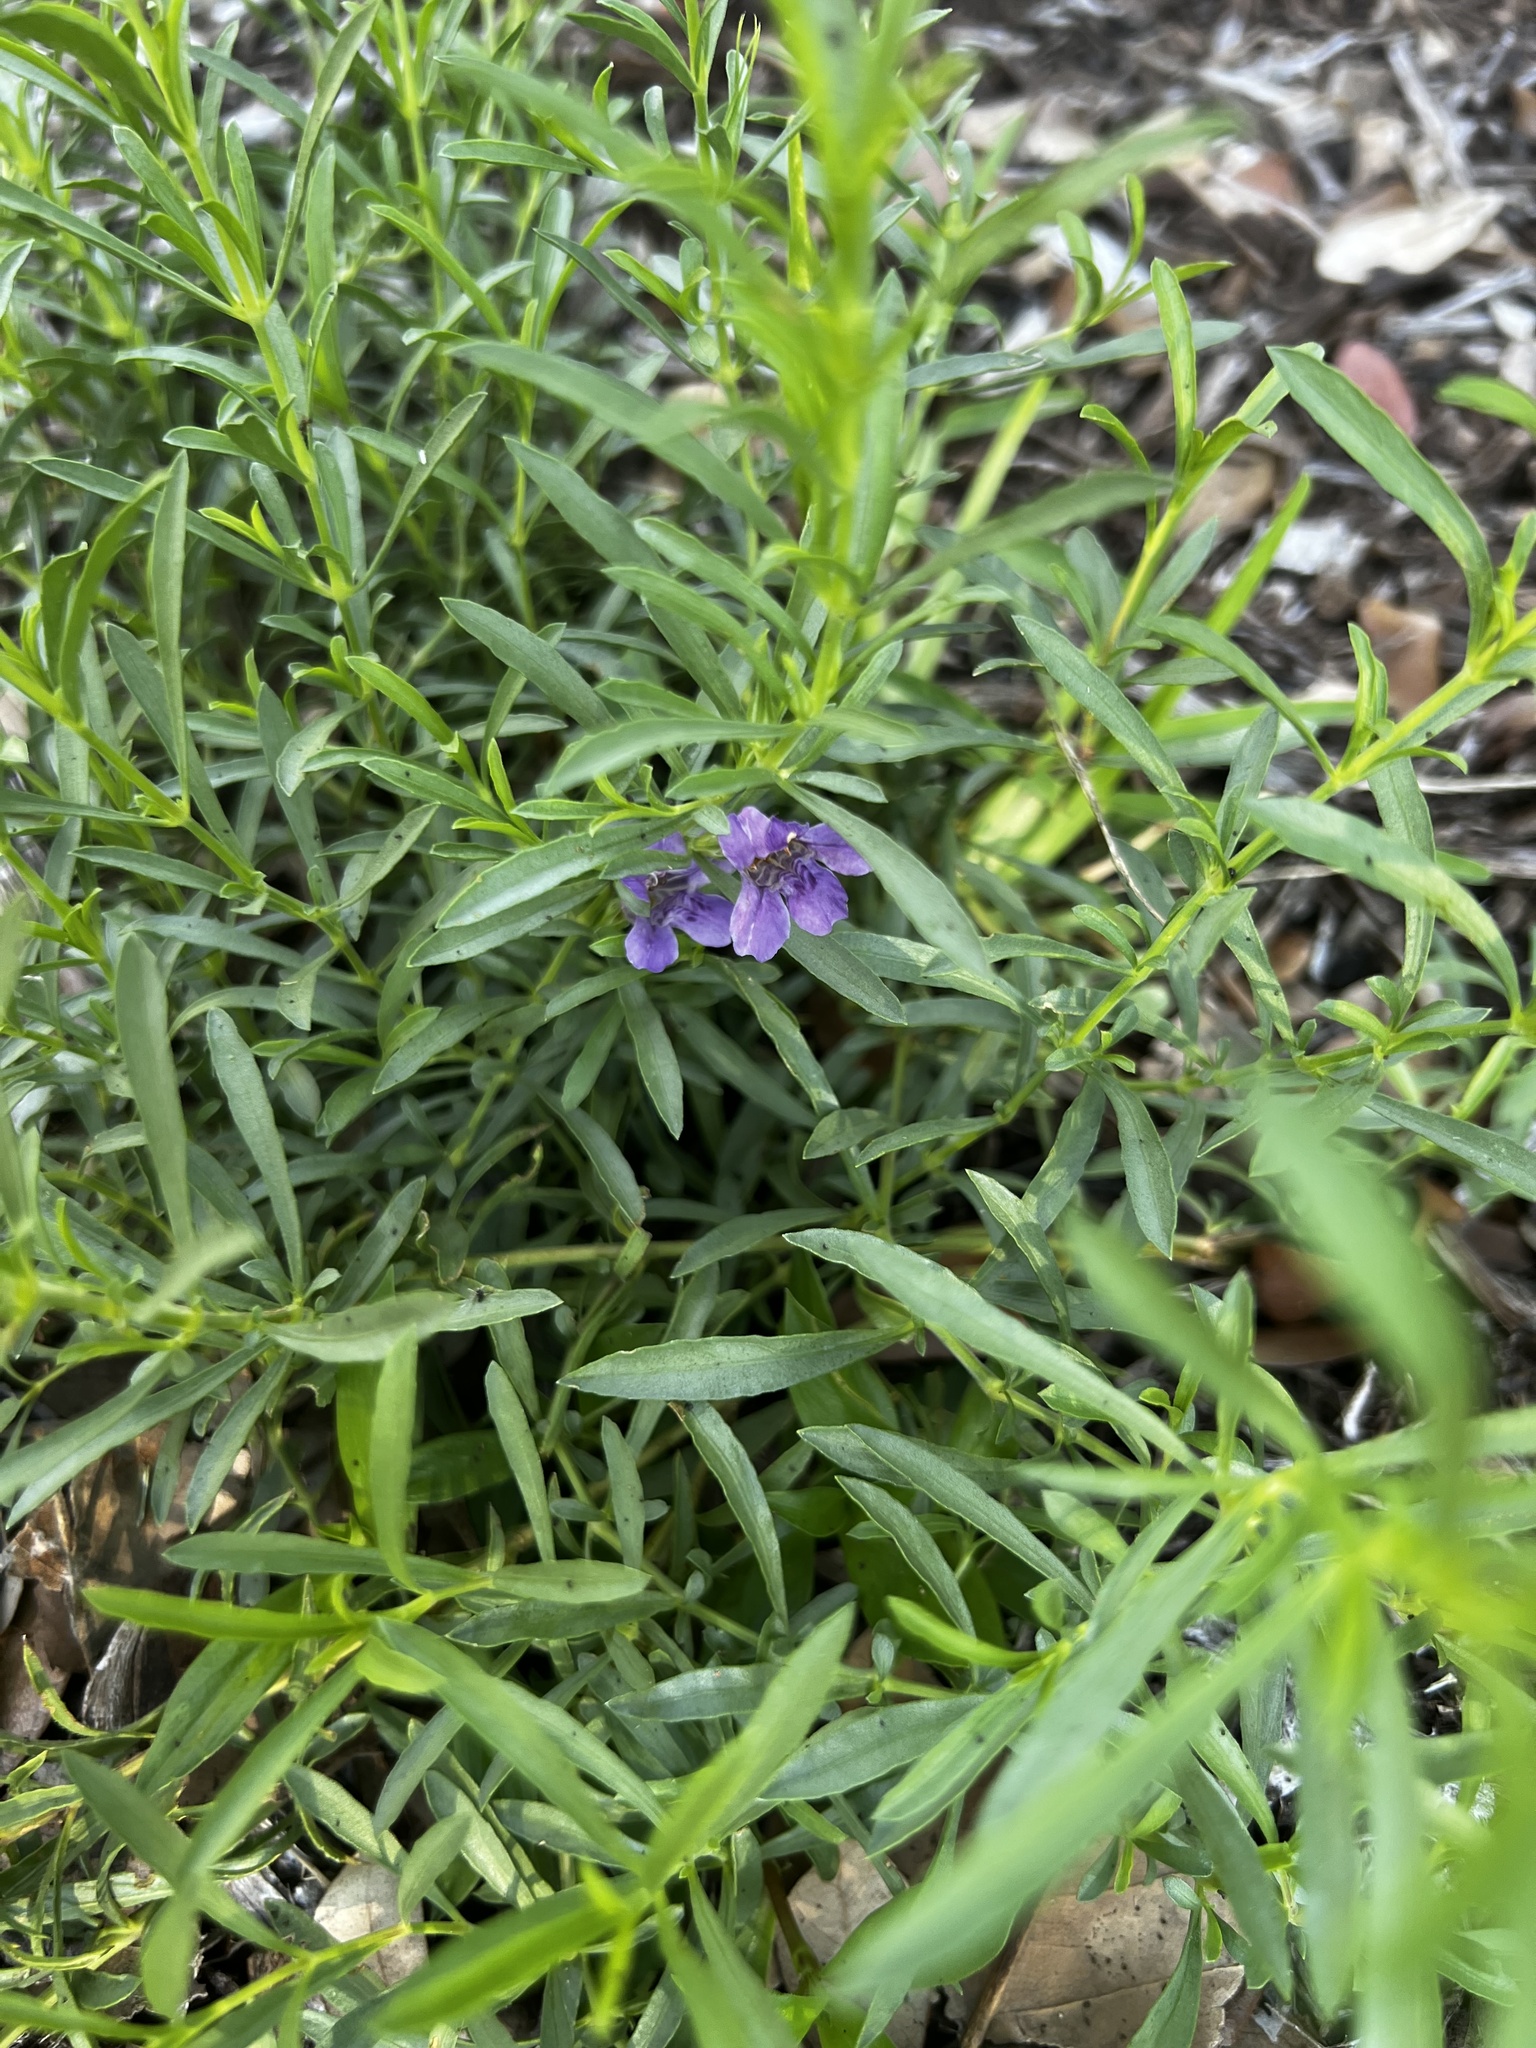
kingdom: Plantae
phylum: Tracheophyta
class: Magnoliopsida
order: Lamiales
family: Acanthaceae
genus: Dyschoriste
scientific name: Dyschoriste linearis
